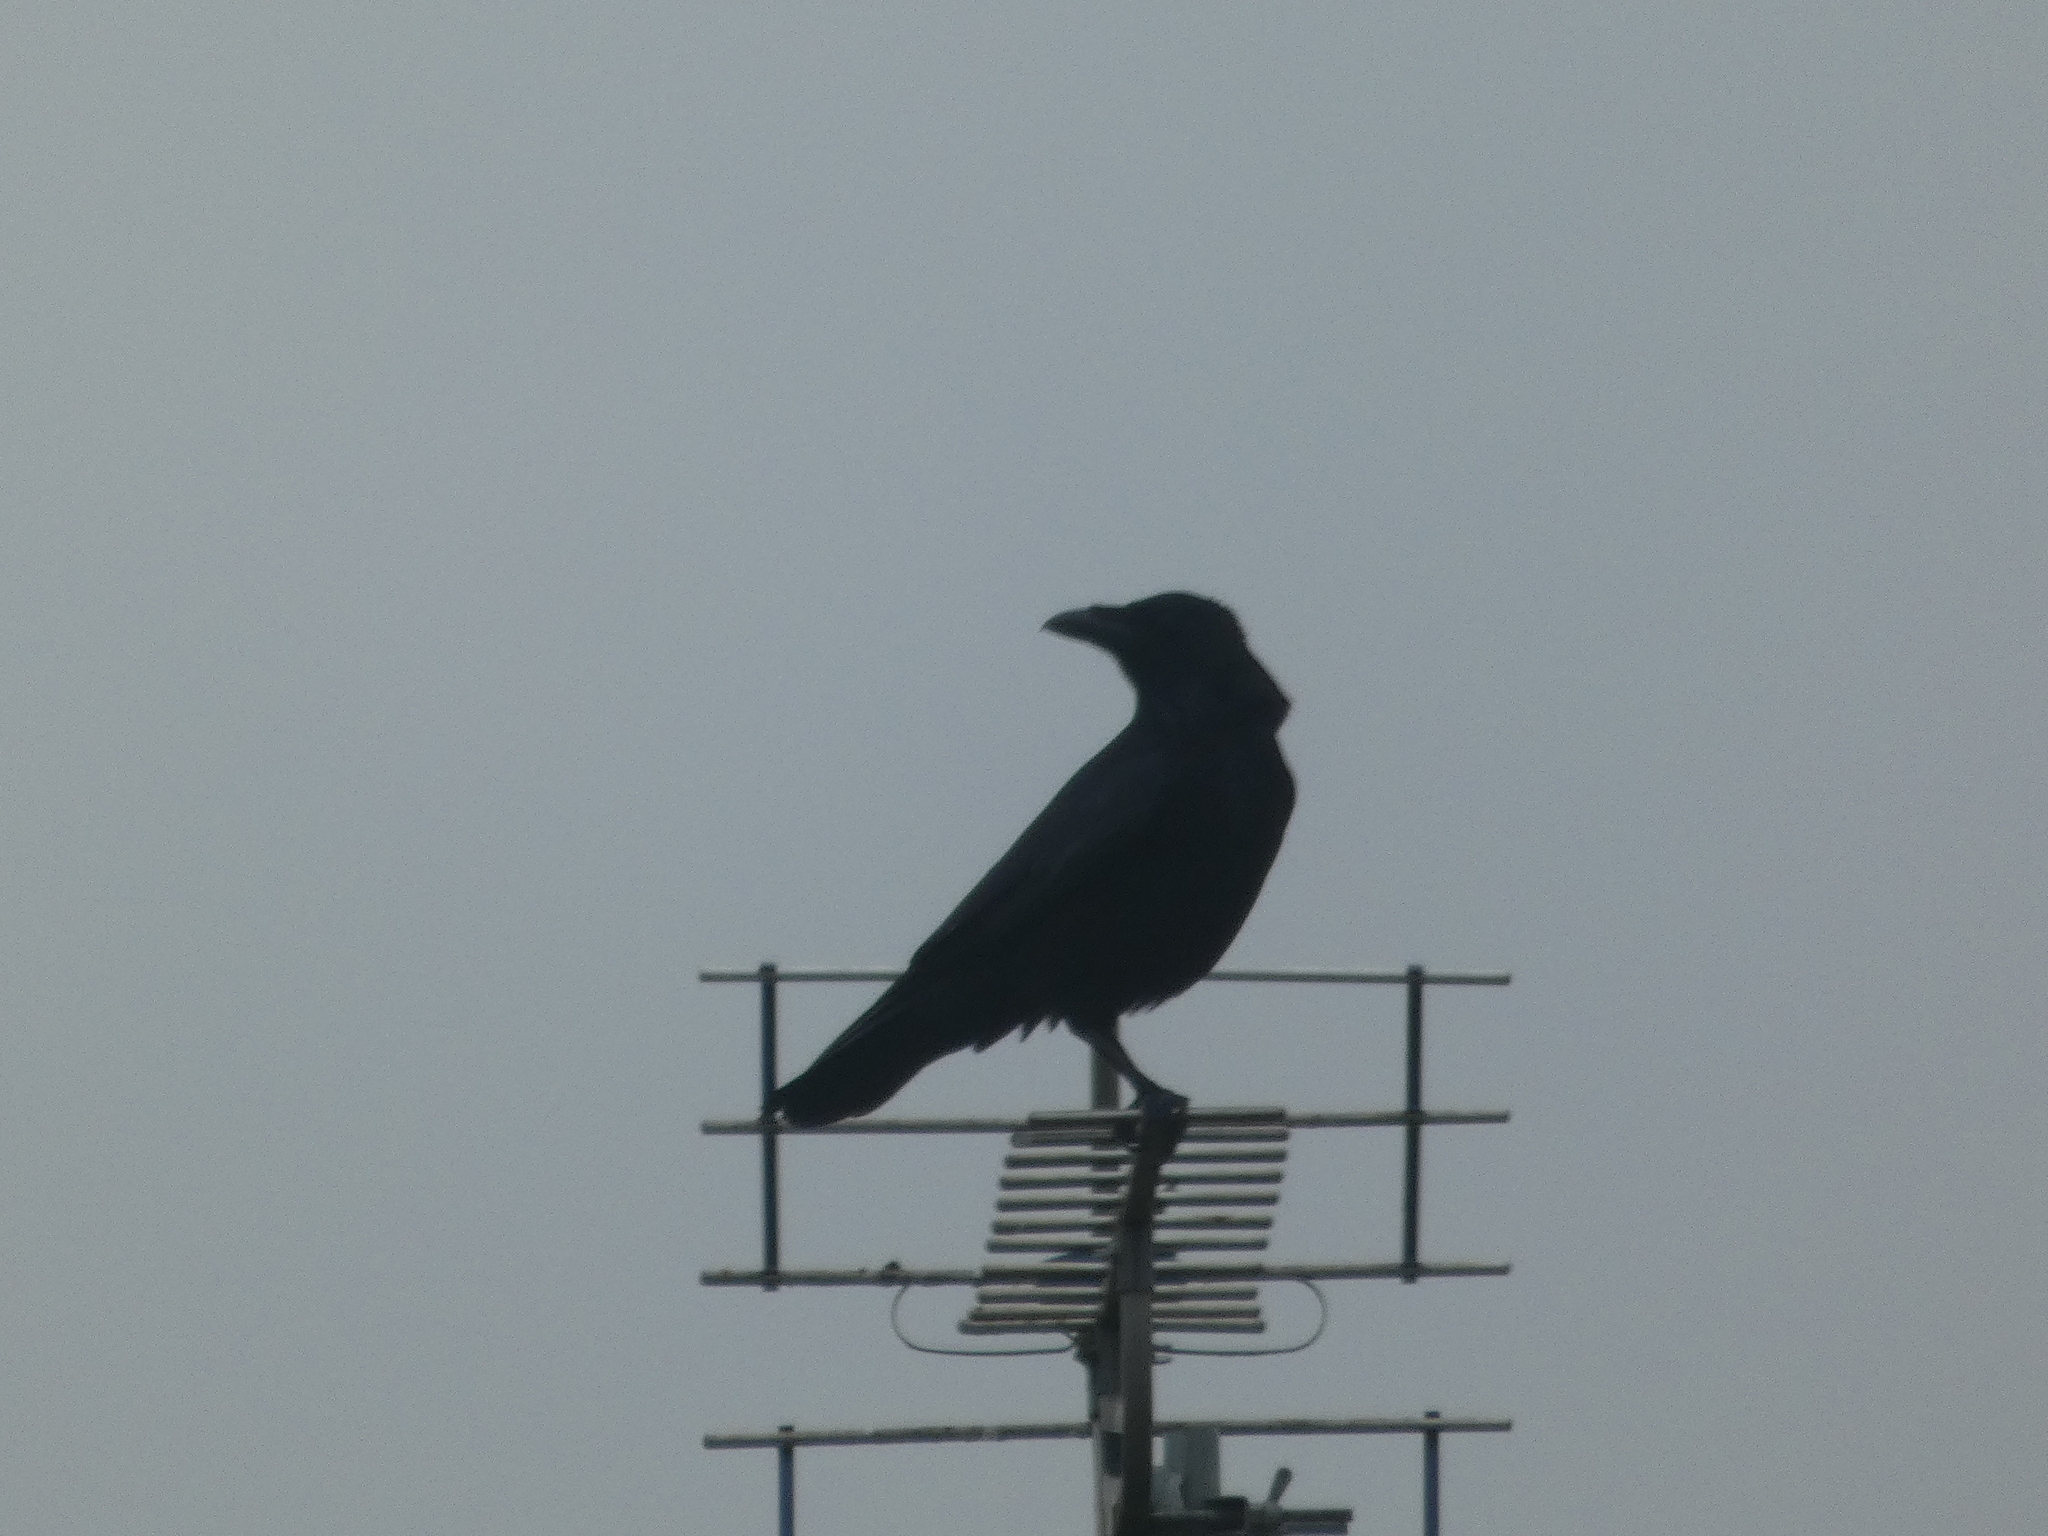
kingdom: Animalia
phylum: Chordata
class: Aves
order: Passeriformes
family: Corvidae
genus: Corvus
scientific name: Corvus corone
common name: Carrion crow
